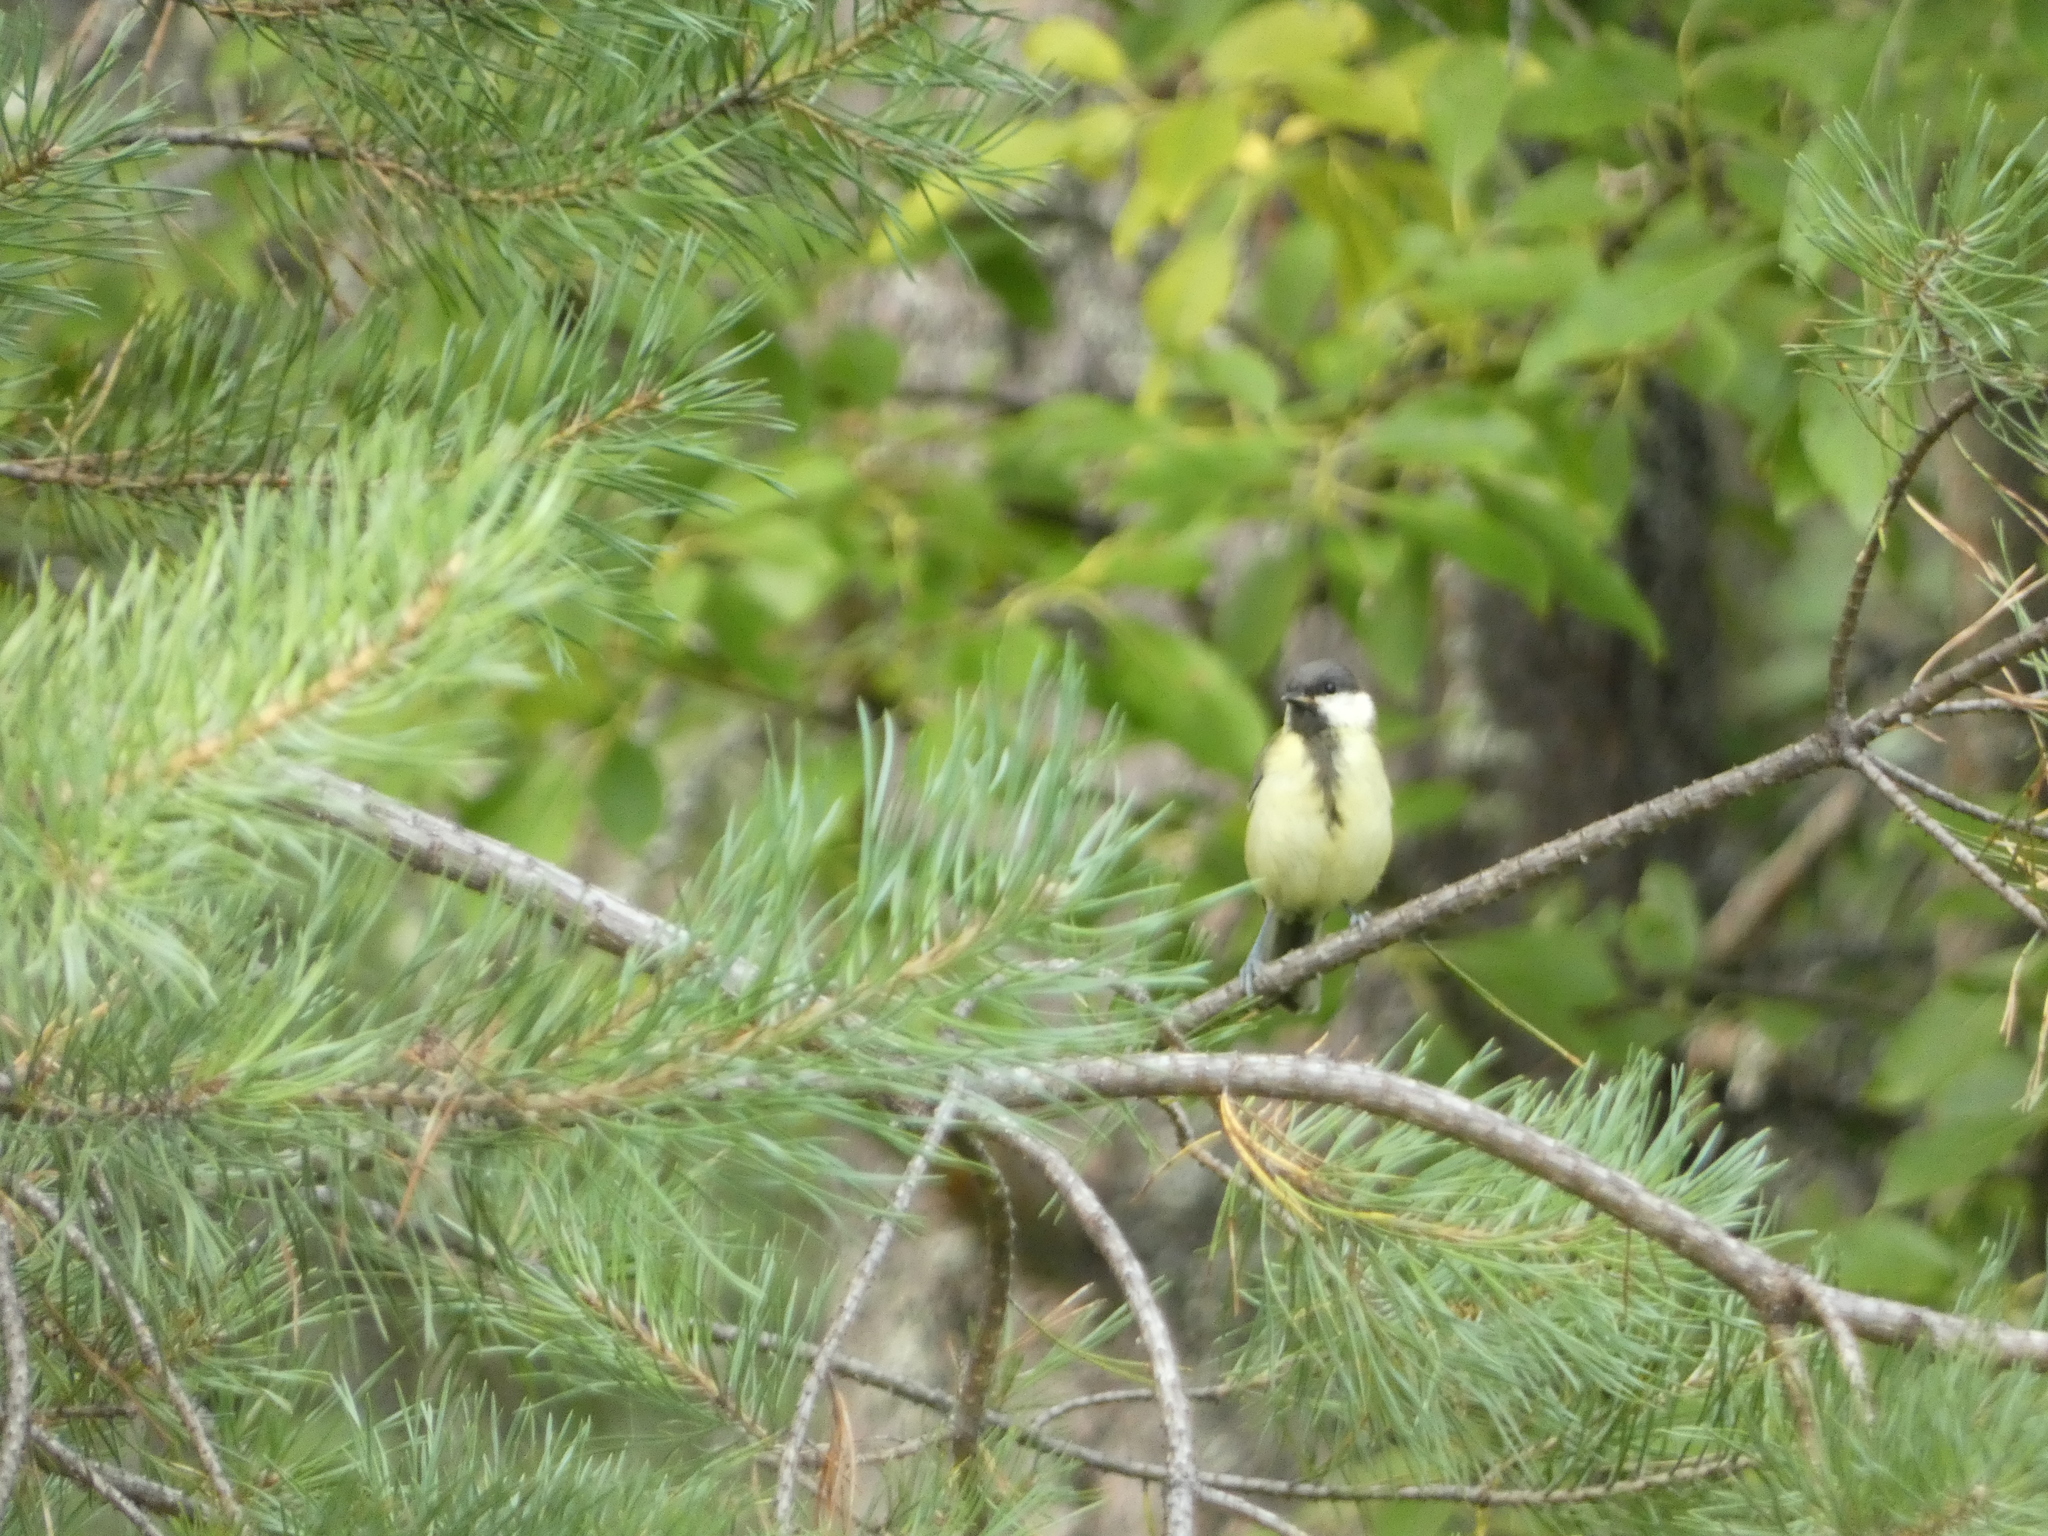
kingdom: Animalia
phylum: Chordata
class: Aves
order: Passeriformes
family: Paridae
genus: Parus
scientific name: Parus major
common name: Great tit
